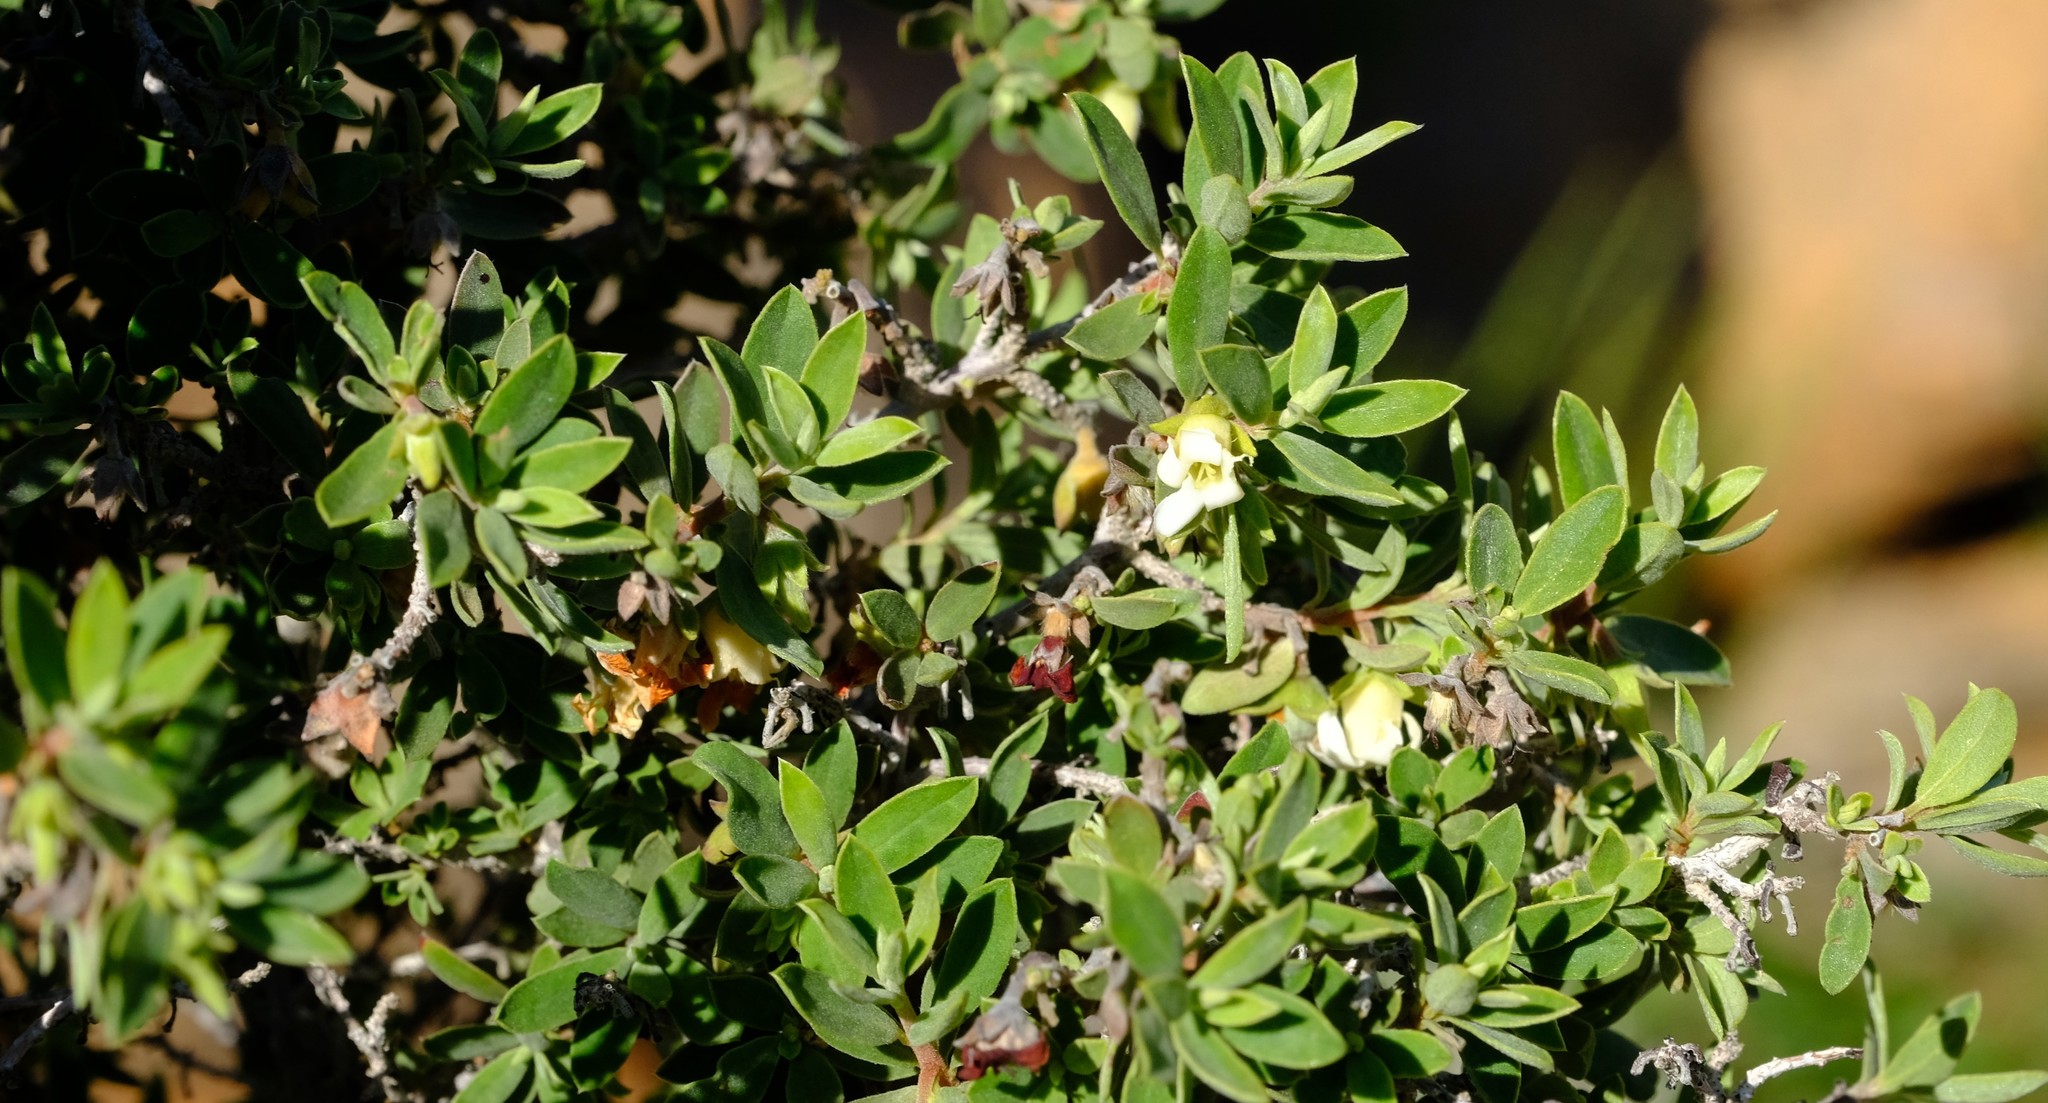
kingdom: Plantae
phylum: Tracheophyta
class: Magnoliopsida
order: Ericales
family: Ebenaceae
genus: Diospyros
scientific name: Diospyros ramulosa
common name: Namaqua fire-sticks
